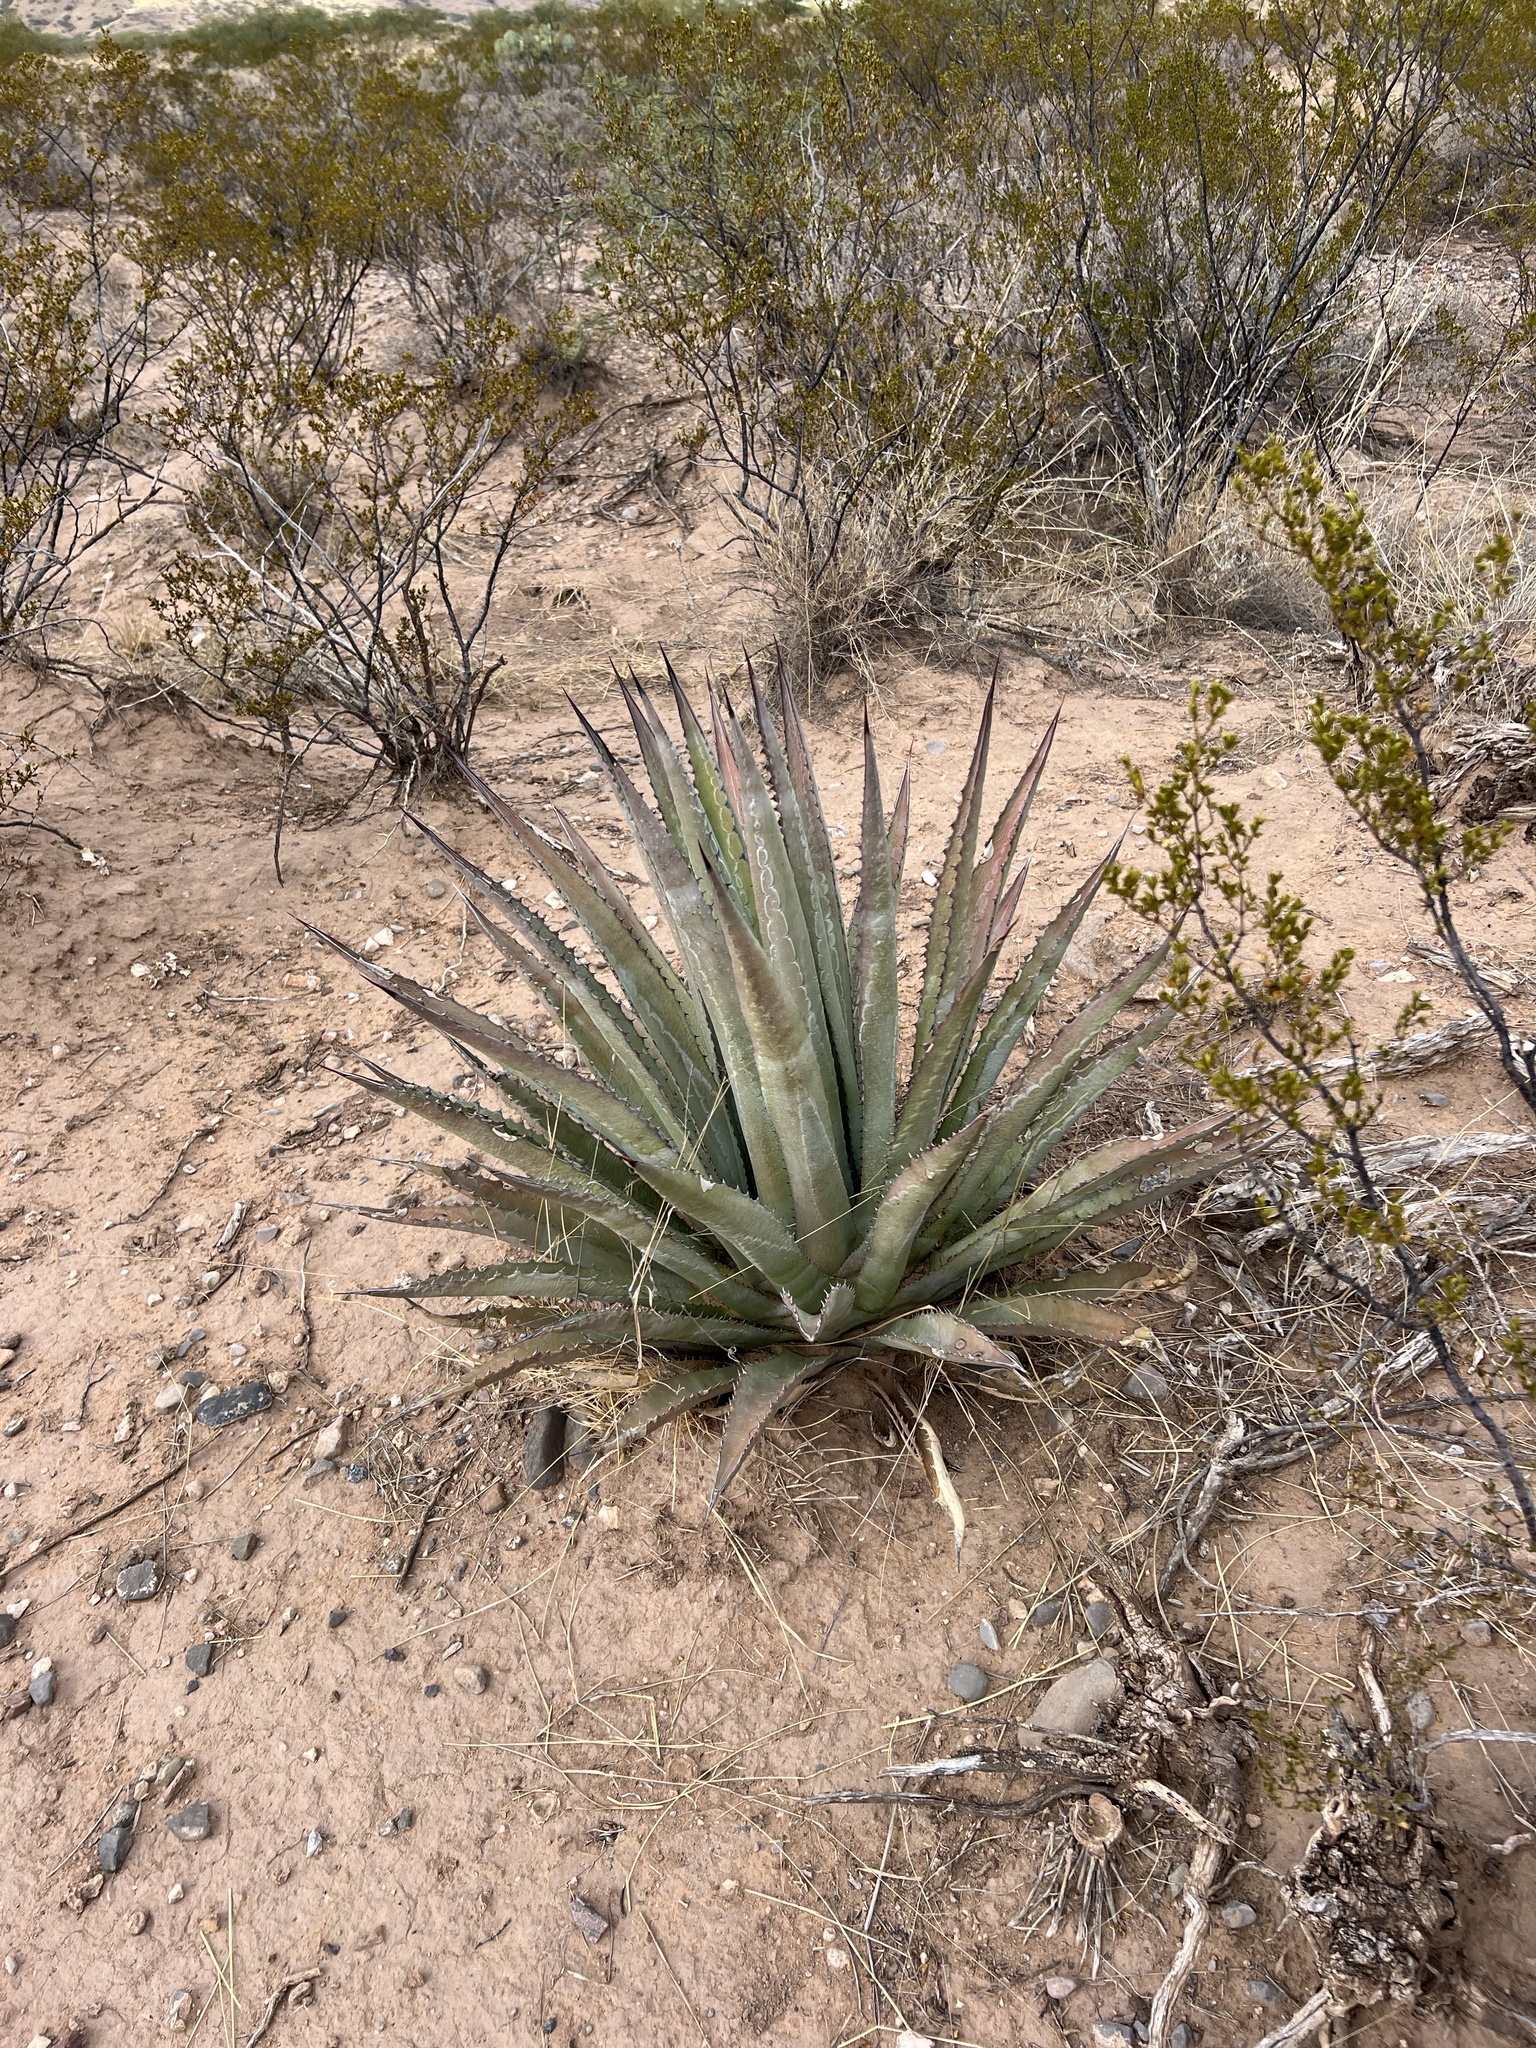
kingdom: Plantae
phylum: Tracheophyta
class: Liliopsida
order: Asparagales
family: Asparagaceae
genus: Agave
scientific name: Agave palmeri
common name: Palmer agave
